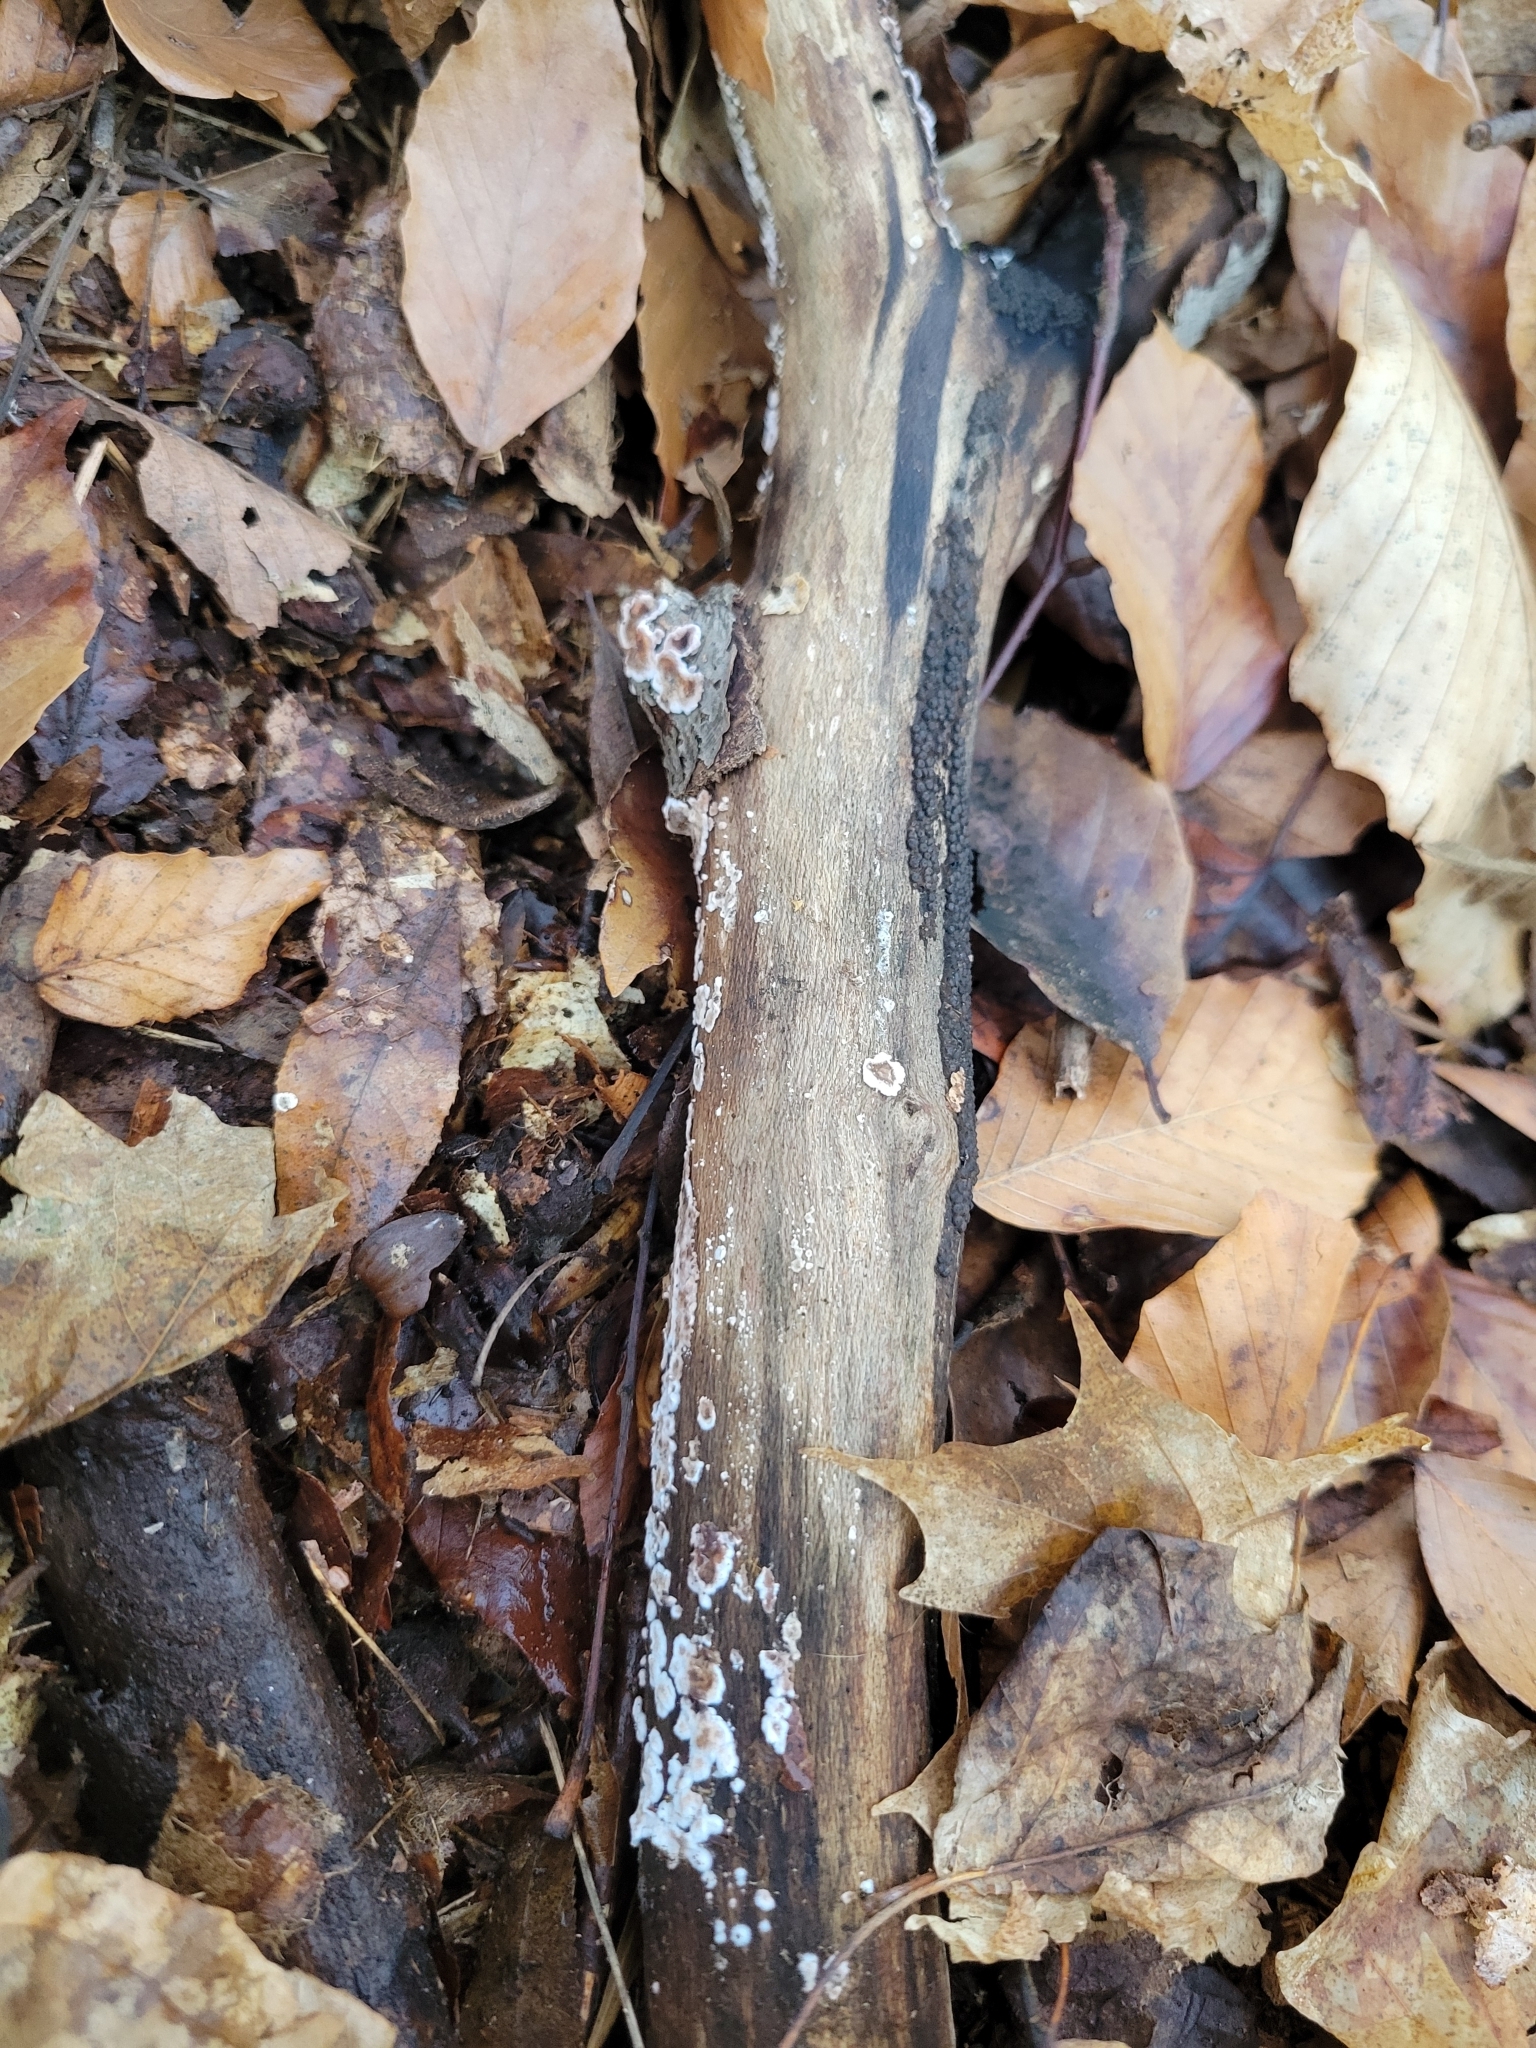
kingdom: Fungi
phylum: Basidiomycota
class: Agaricomycetes
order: Russulales
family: Peniophoraceae
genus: Peniophora
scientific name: Peniophora albobadia
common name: Giraffe spots
